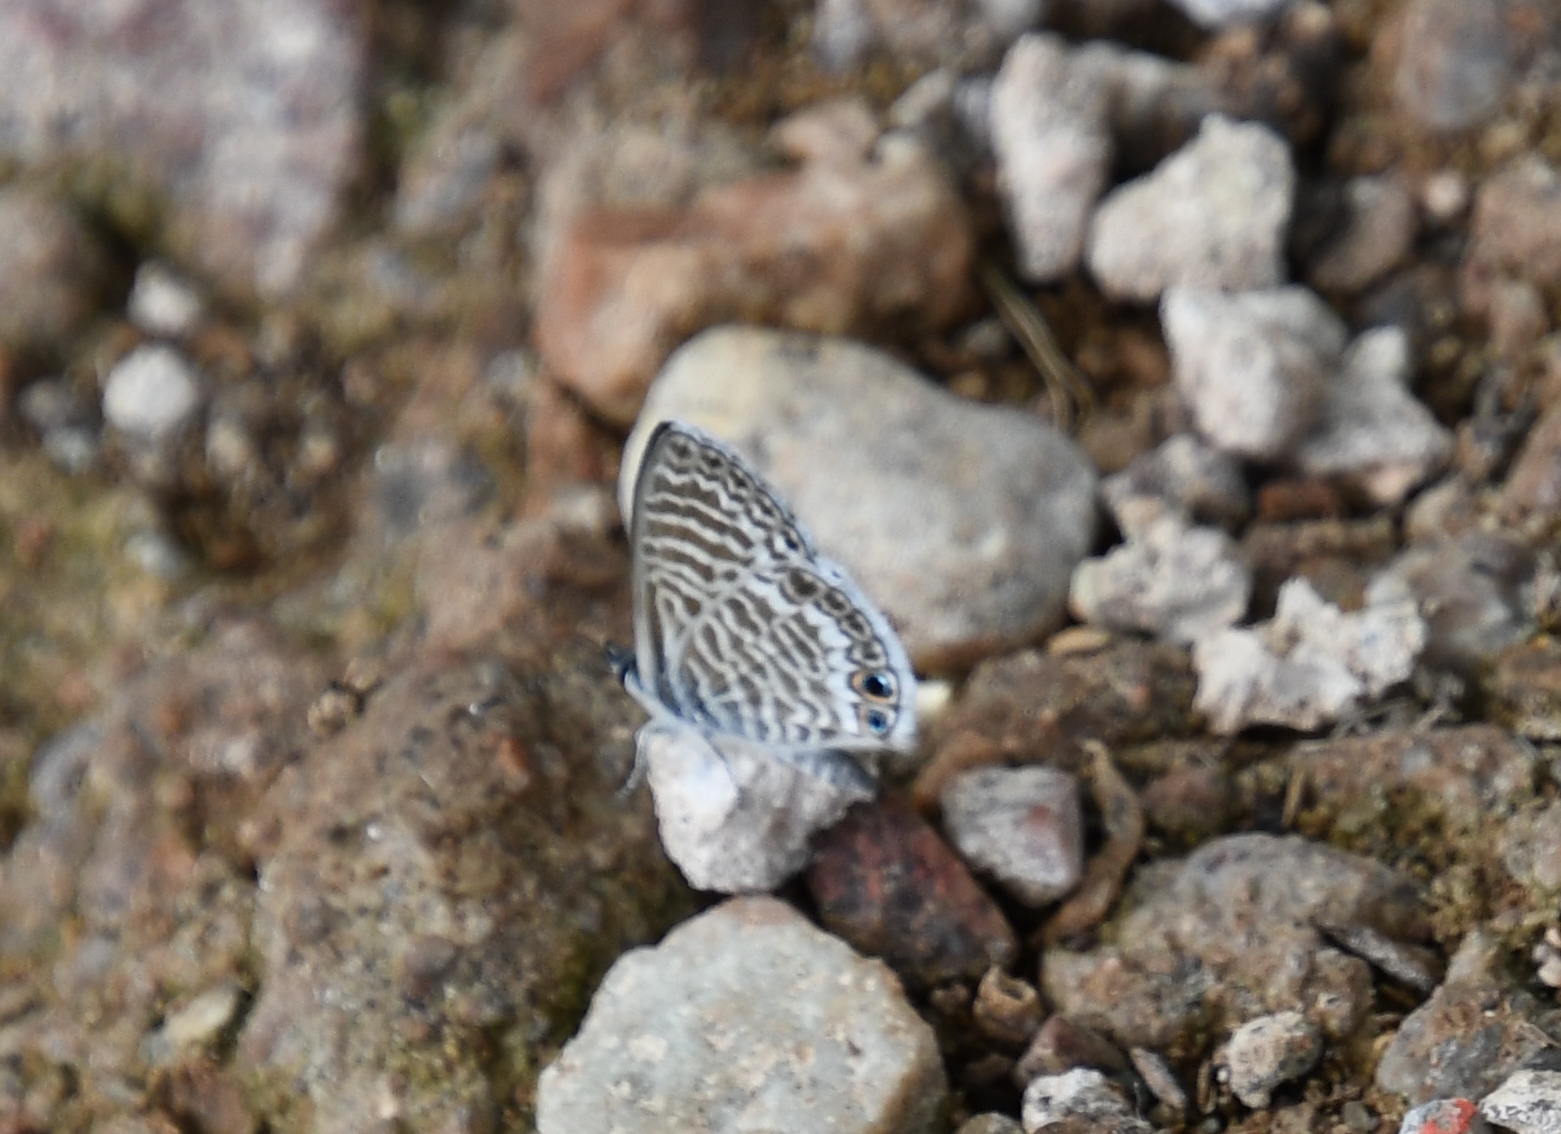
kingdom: Animalia
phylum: Arthropoda
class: Insecta
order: Lepidoptera
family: Lycaenidae
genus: Leptotes
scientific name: Leptotes marina
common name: Marine blue
